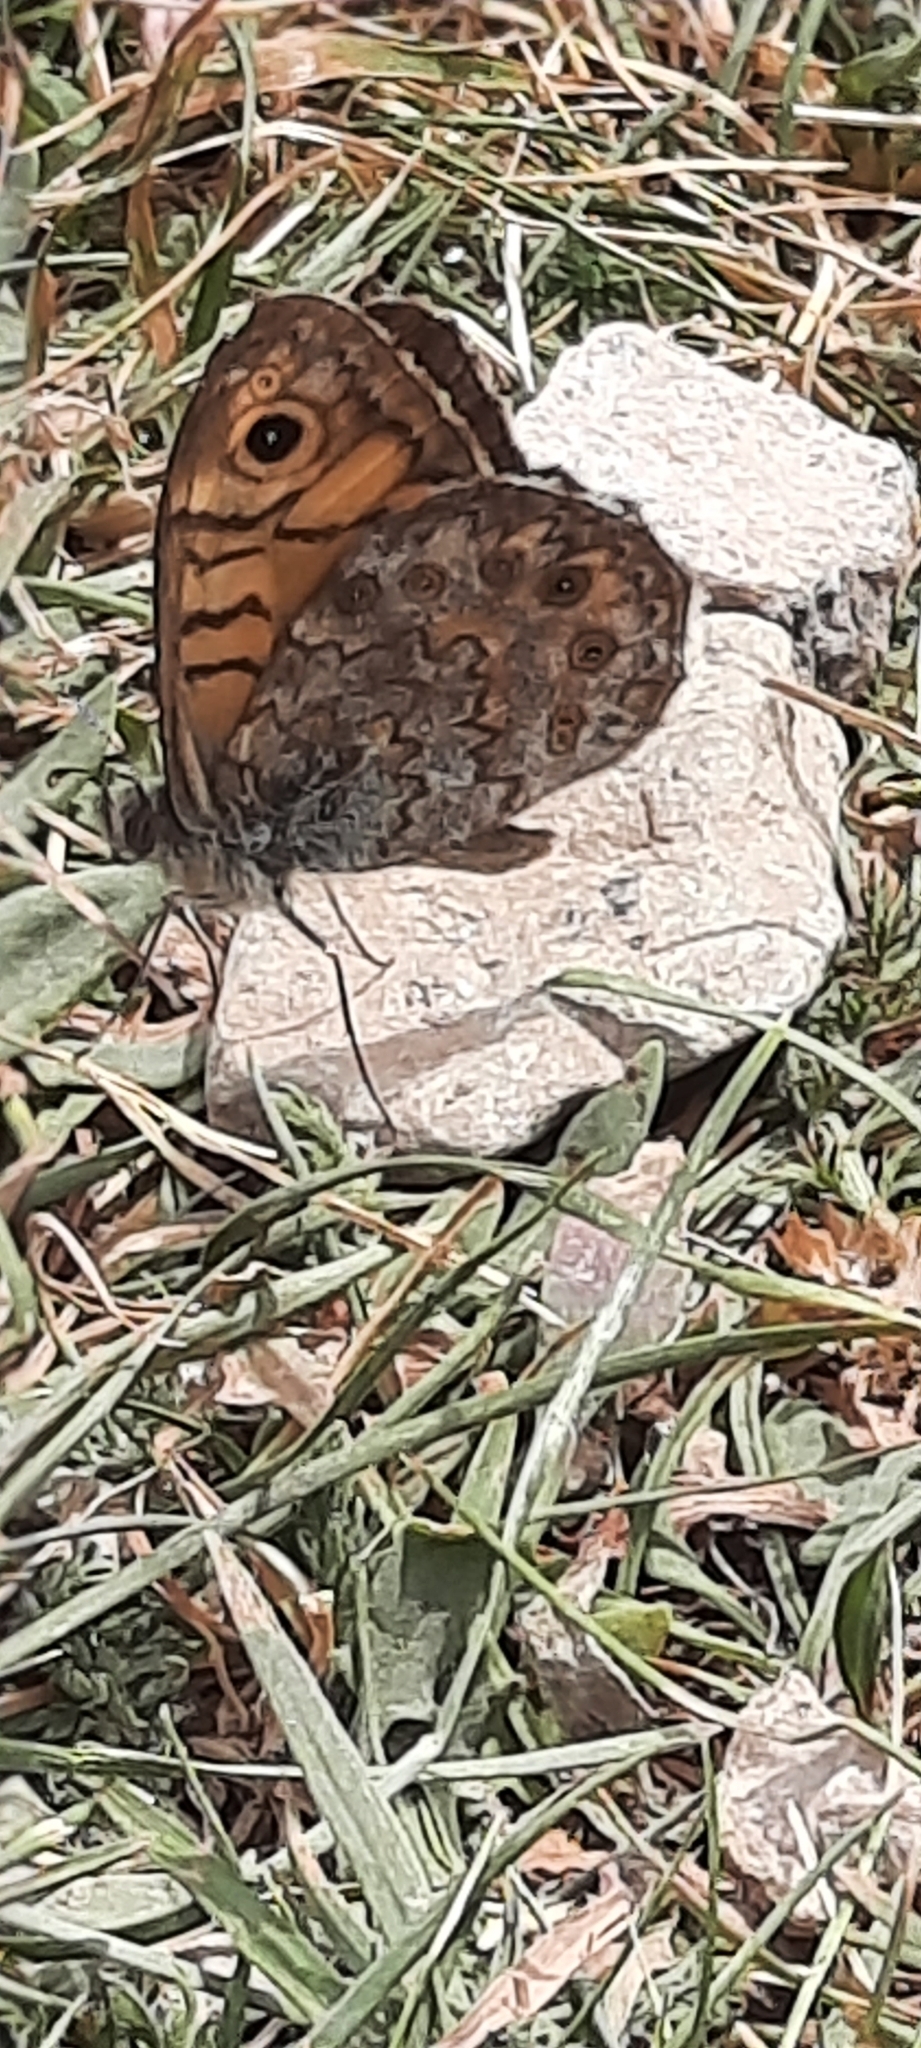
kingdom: Animalia
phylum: Arthropoda
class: Insecta
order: Lepidoptera
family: Nymphalidae
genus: Pararge
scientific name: Pararge Lasiommata megera
